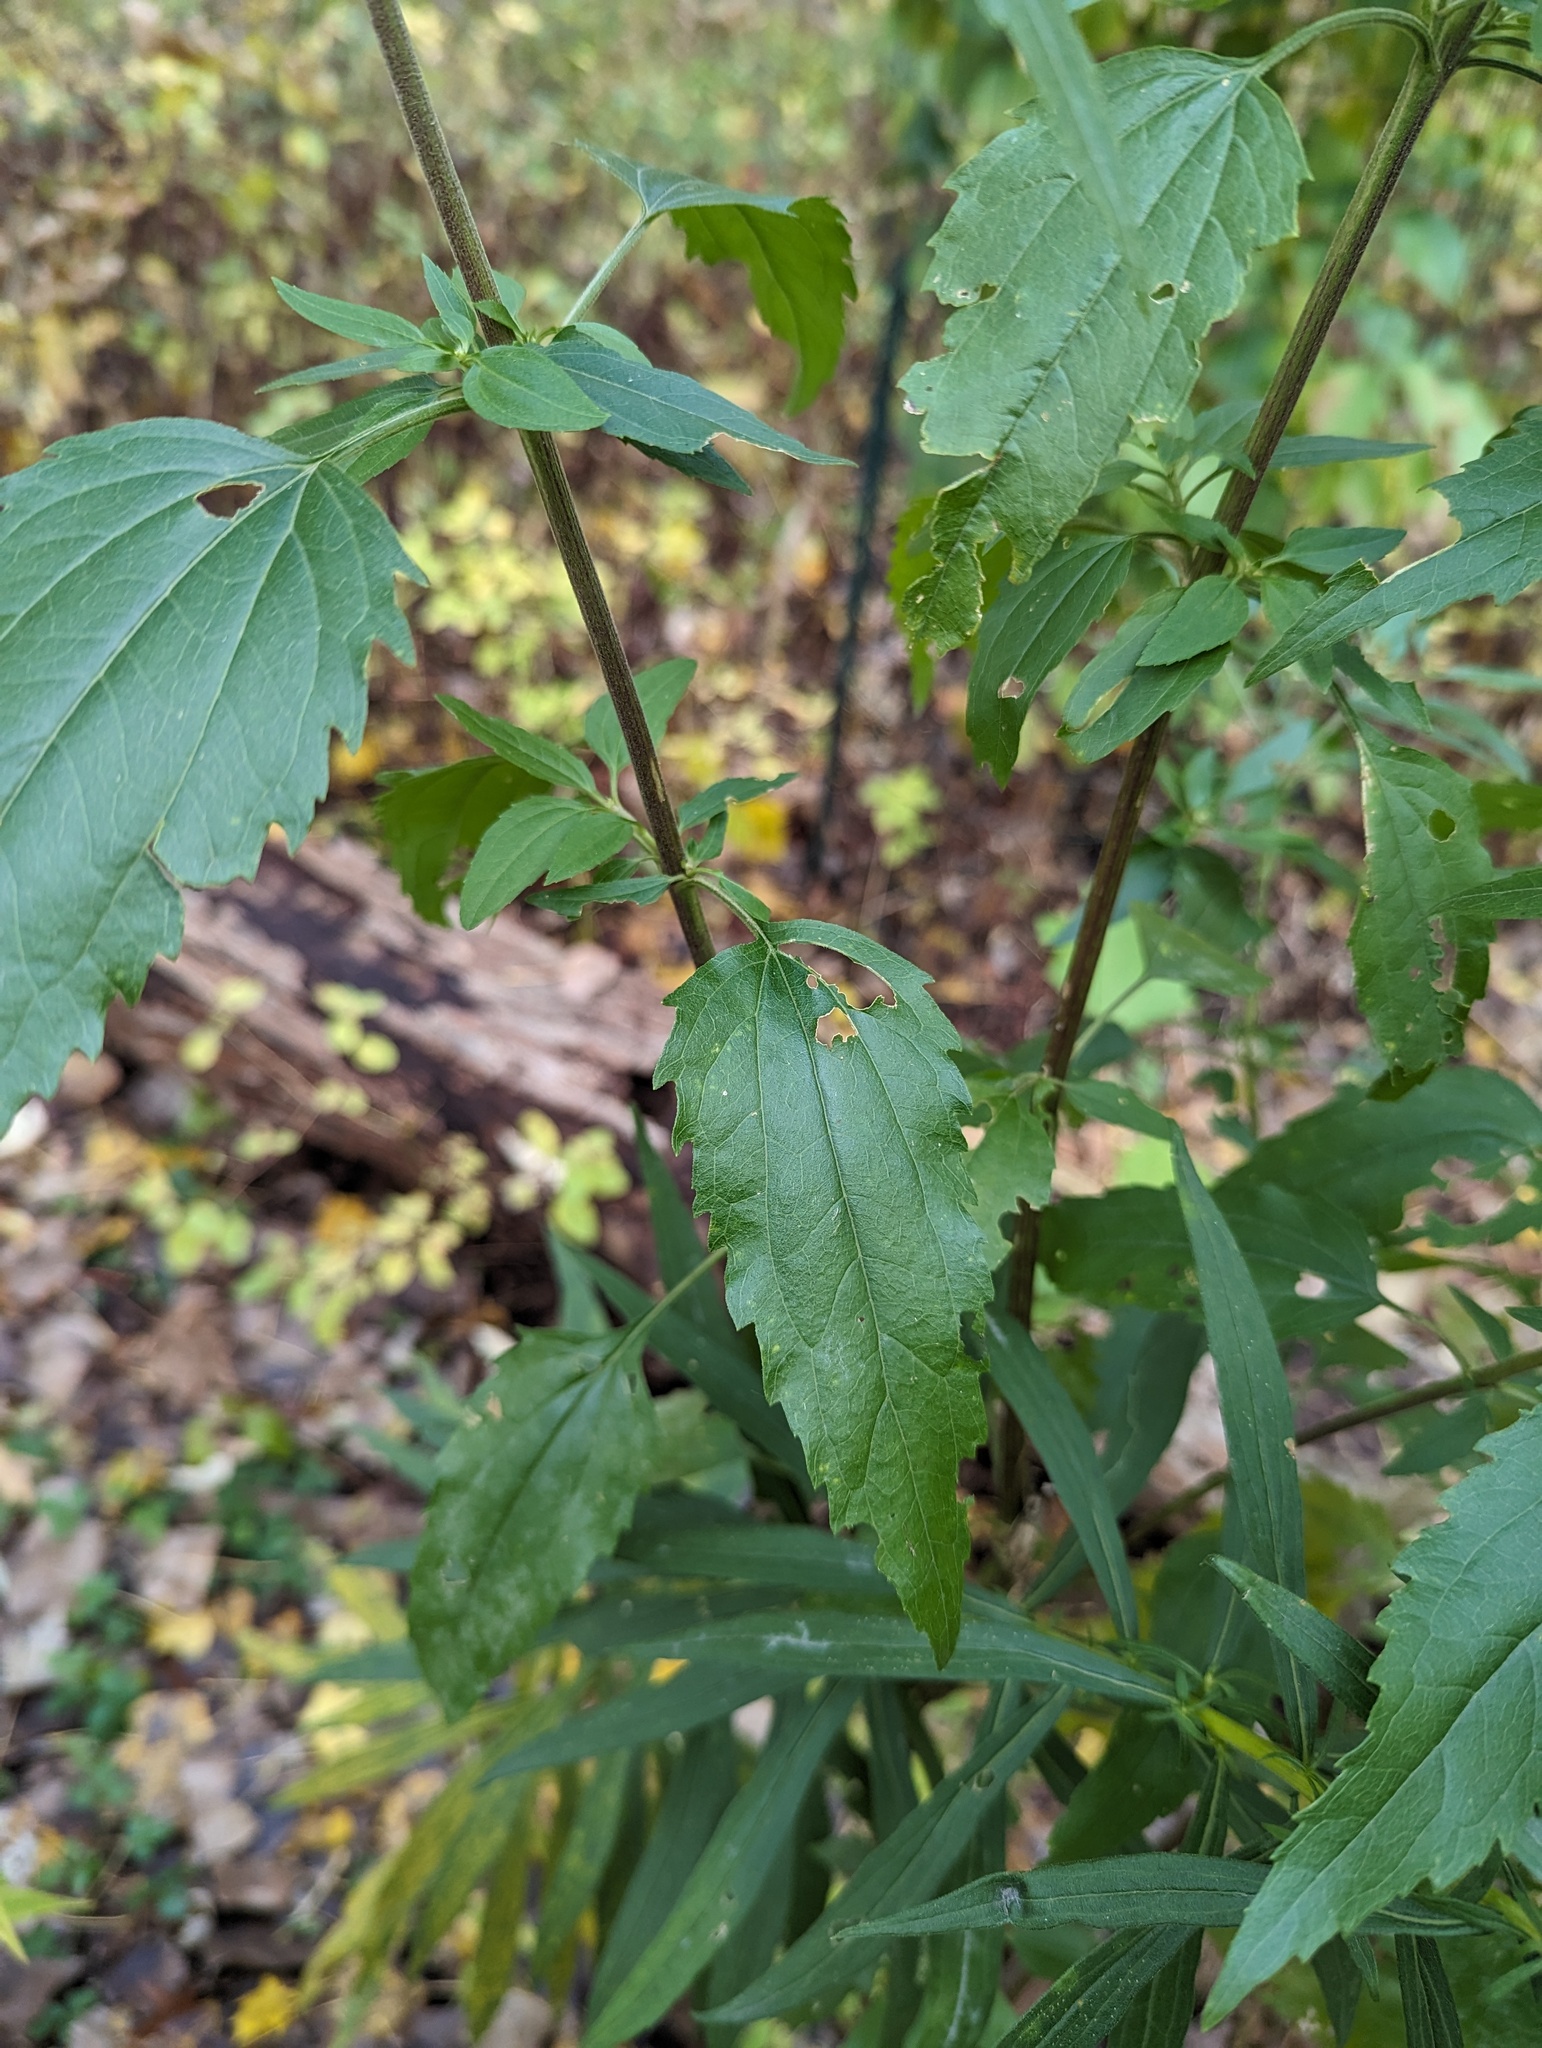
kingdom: Plantae
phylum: Tracheophyta
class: Magnoliopsida
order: Asterales
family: Asteraceae
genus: Eupatorium
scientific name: Eupatorium serotinum
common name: Late boneset
